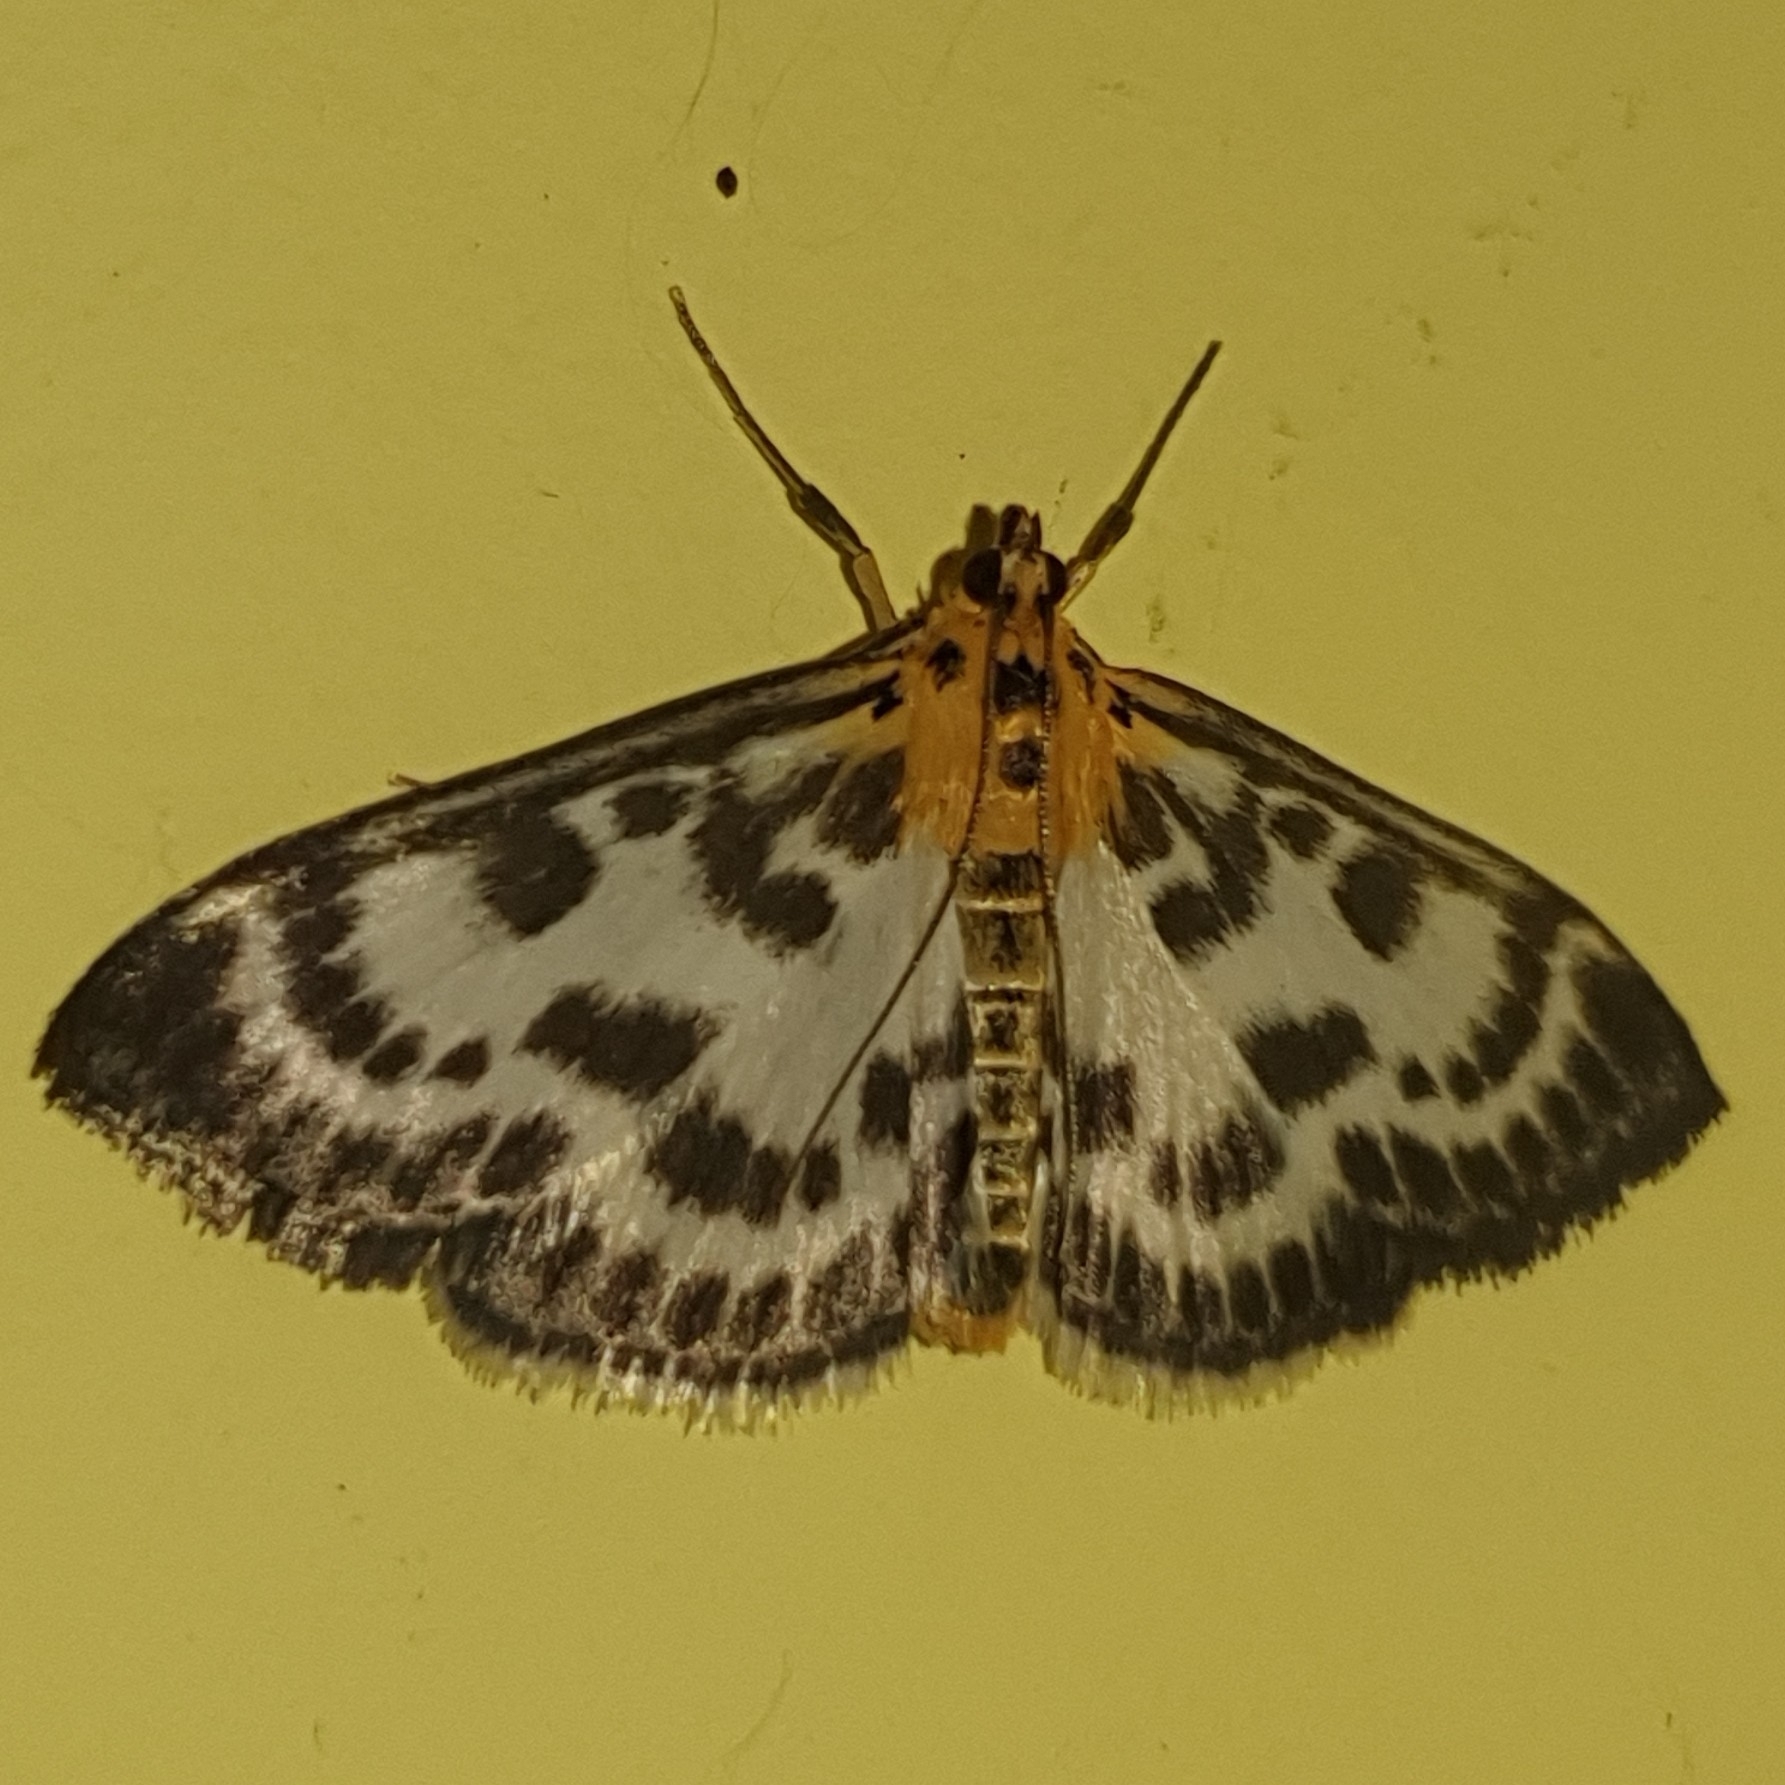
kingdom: Animalia
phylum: Arthropoda
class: Insecta
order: Lepidoptera
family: Crambidae
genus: Anania
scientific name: Anania hortulata
